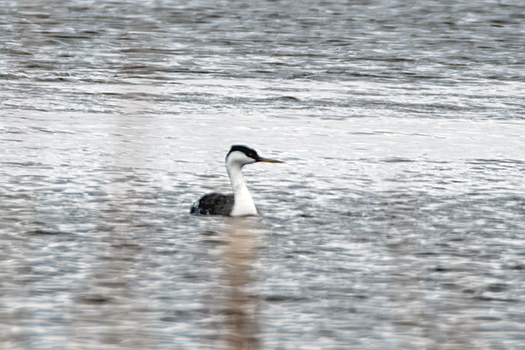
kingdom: Animalia
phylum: Chordata
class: Aves
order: Podicipediformes
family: Podicipedidae
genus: Aechmophorus
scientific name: Aechmophorus occidentalis
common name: Western grebe
